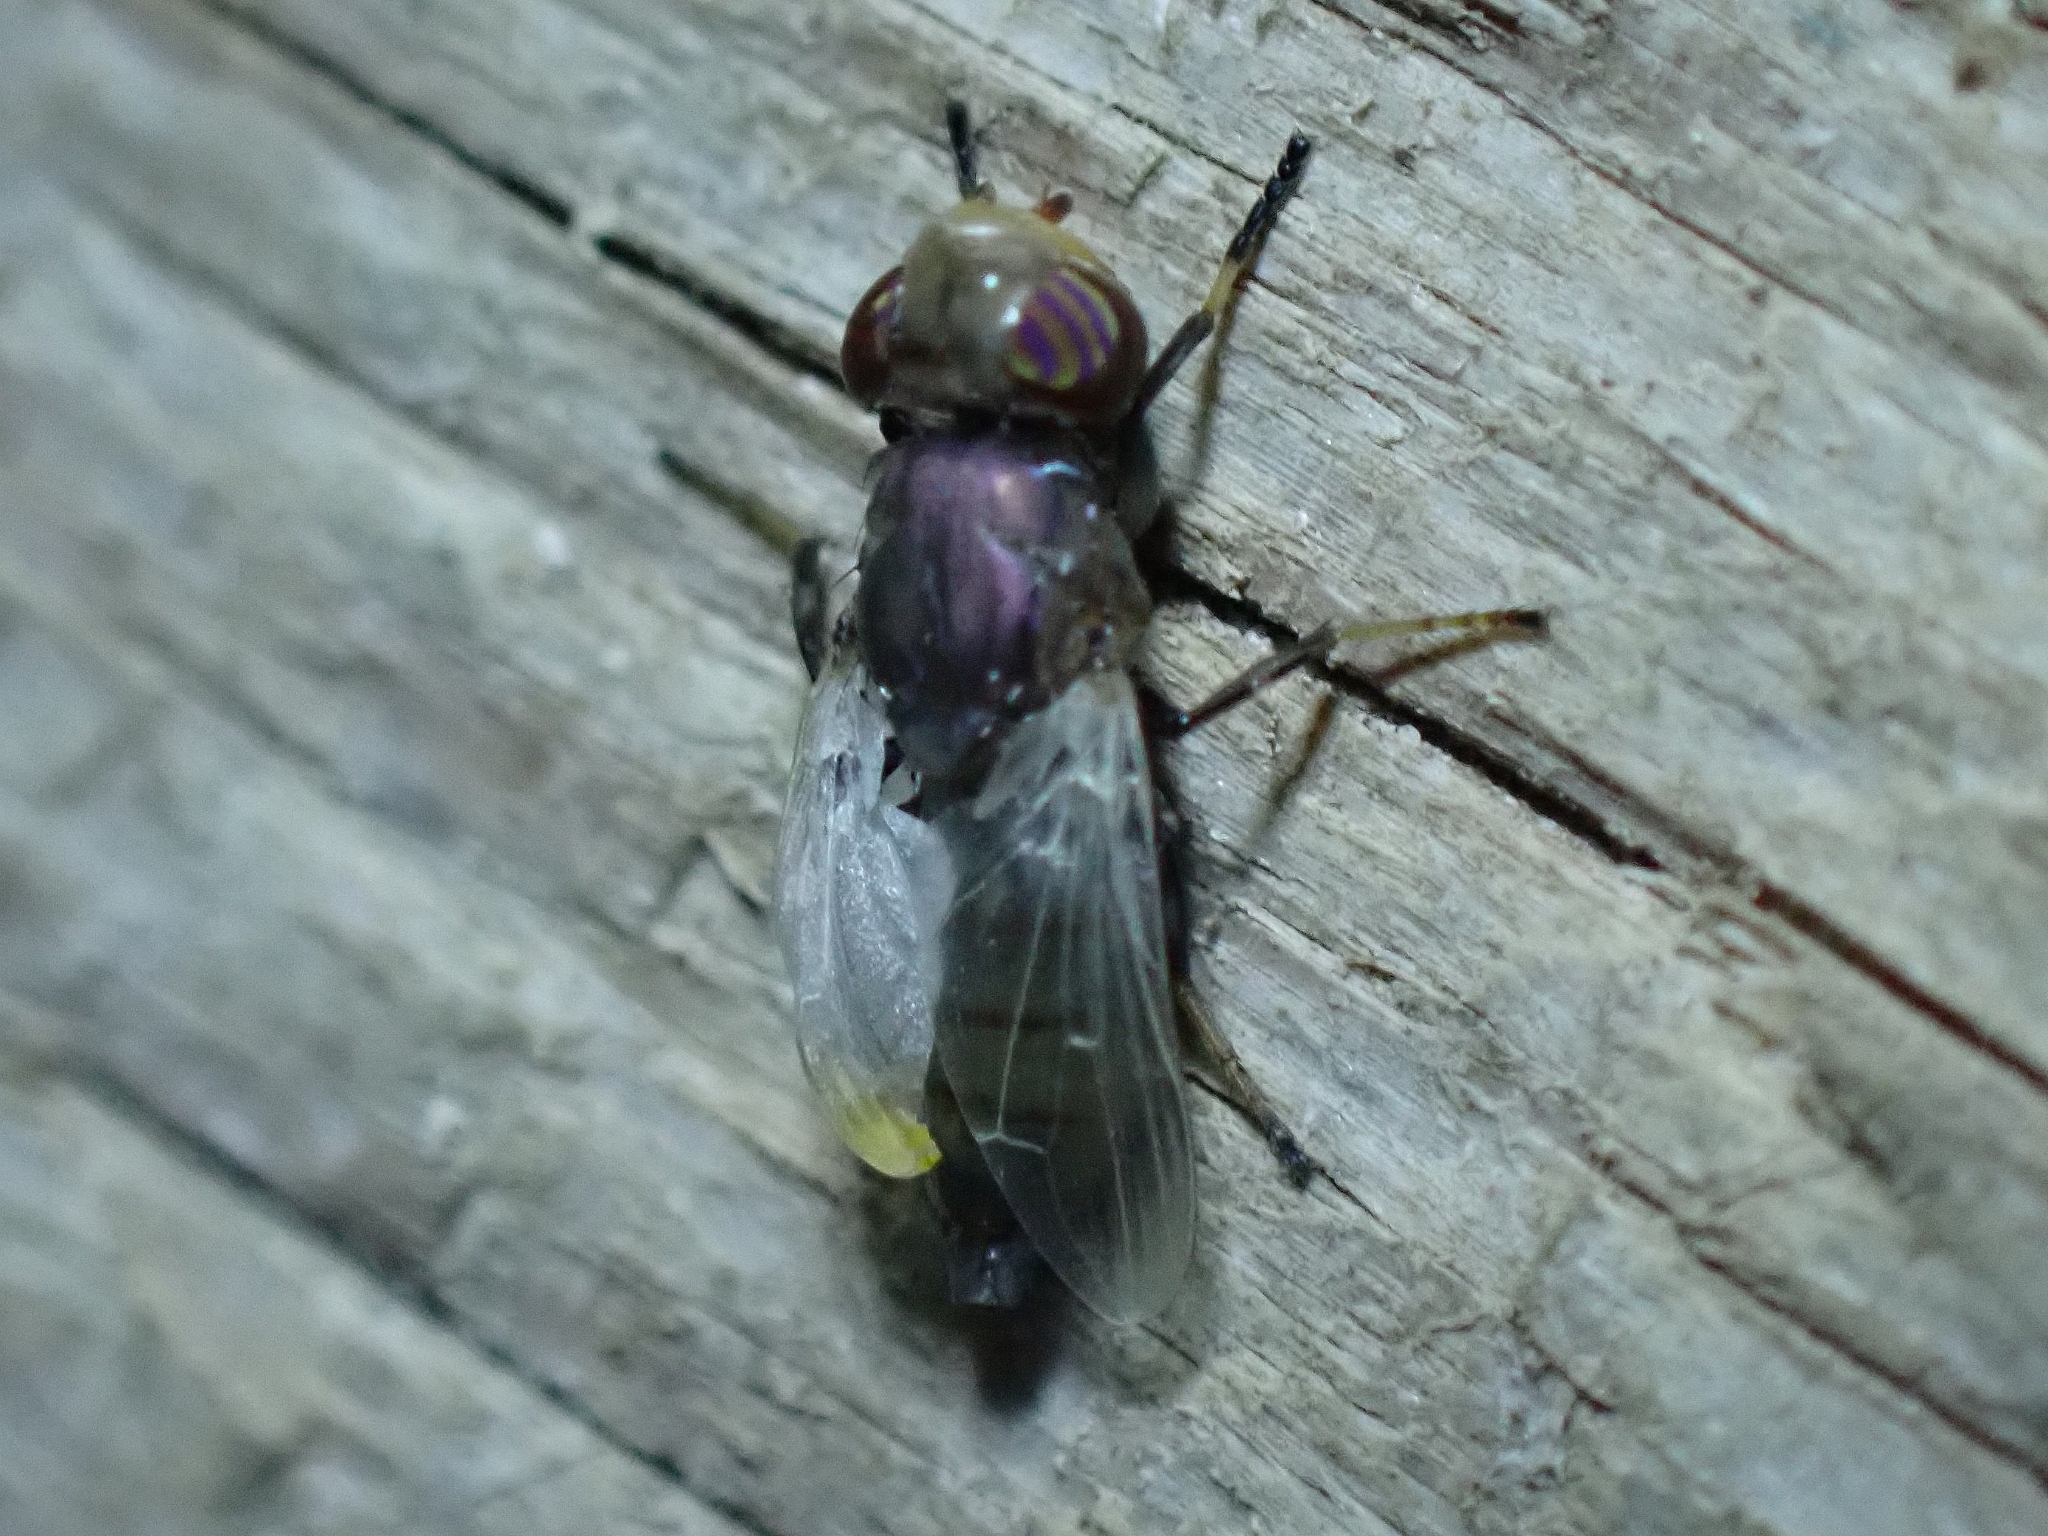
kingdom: Animalia
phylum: Arthropoda
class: Insecta
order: Diptera
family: Ulidiidae
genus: Physiphora
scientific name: Physiphora alceae
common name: Picture-winged fly
